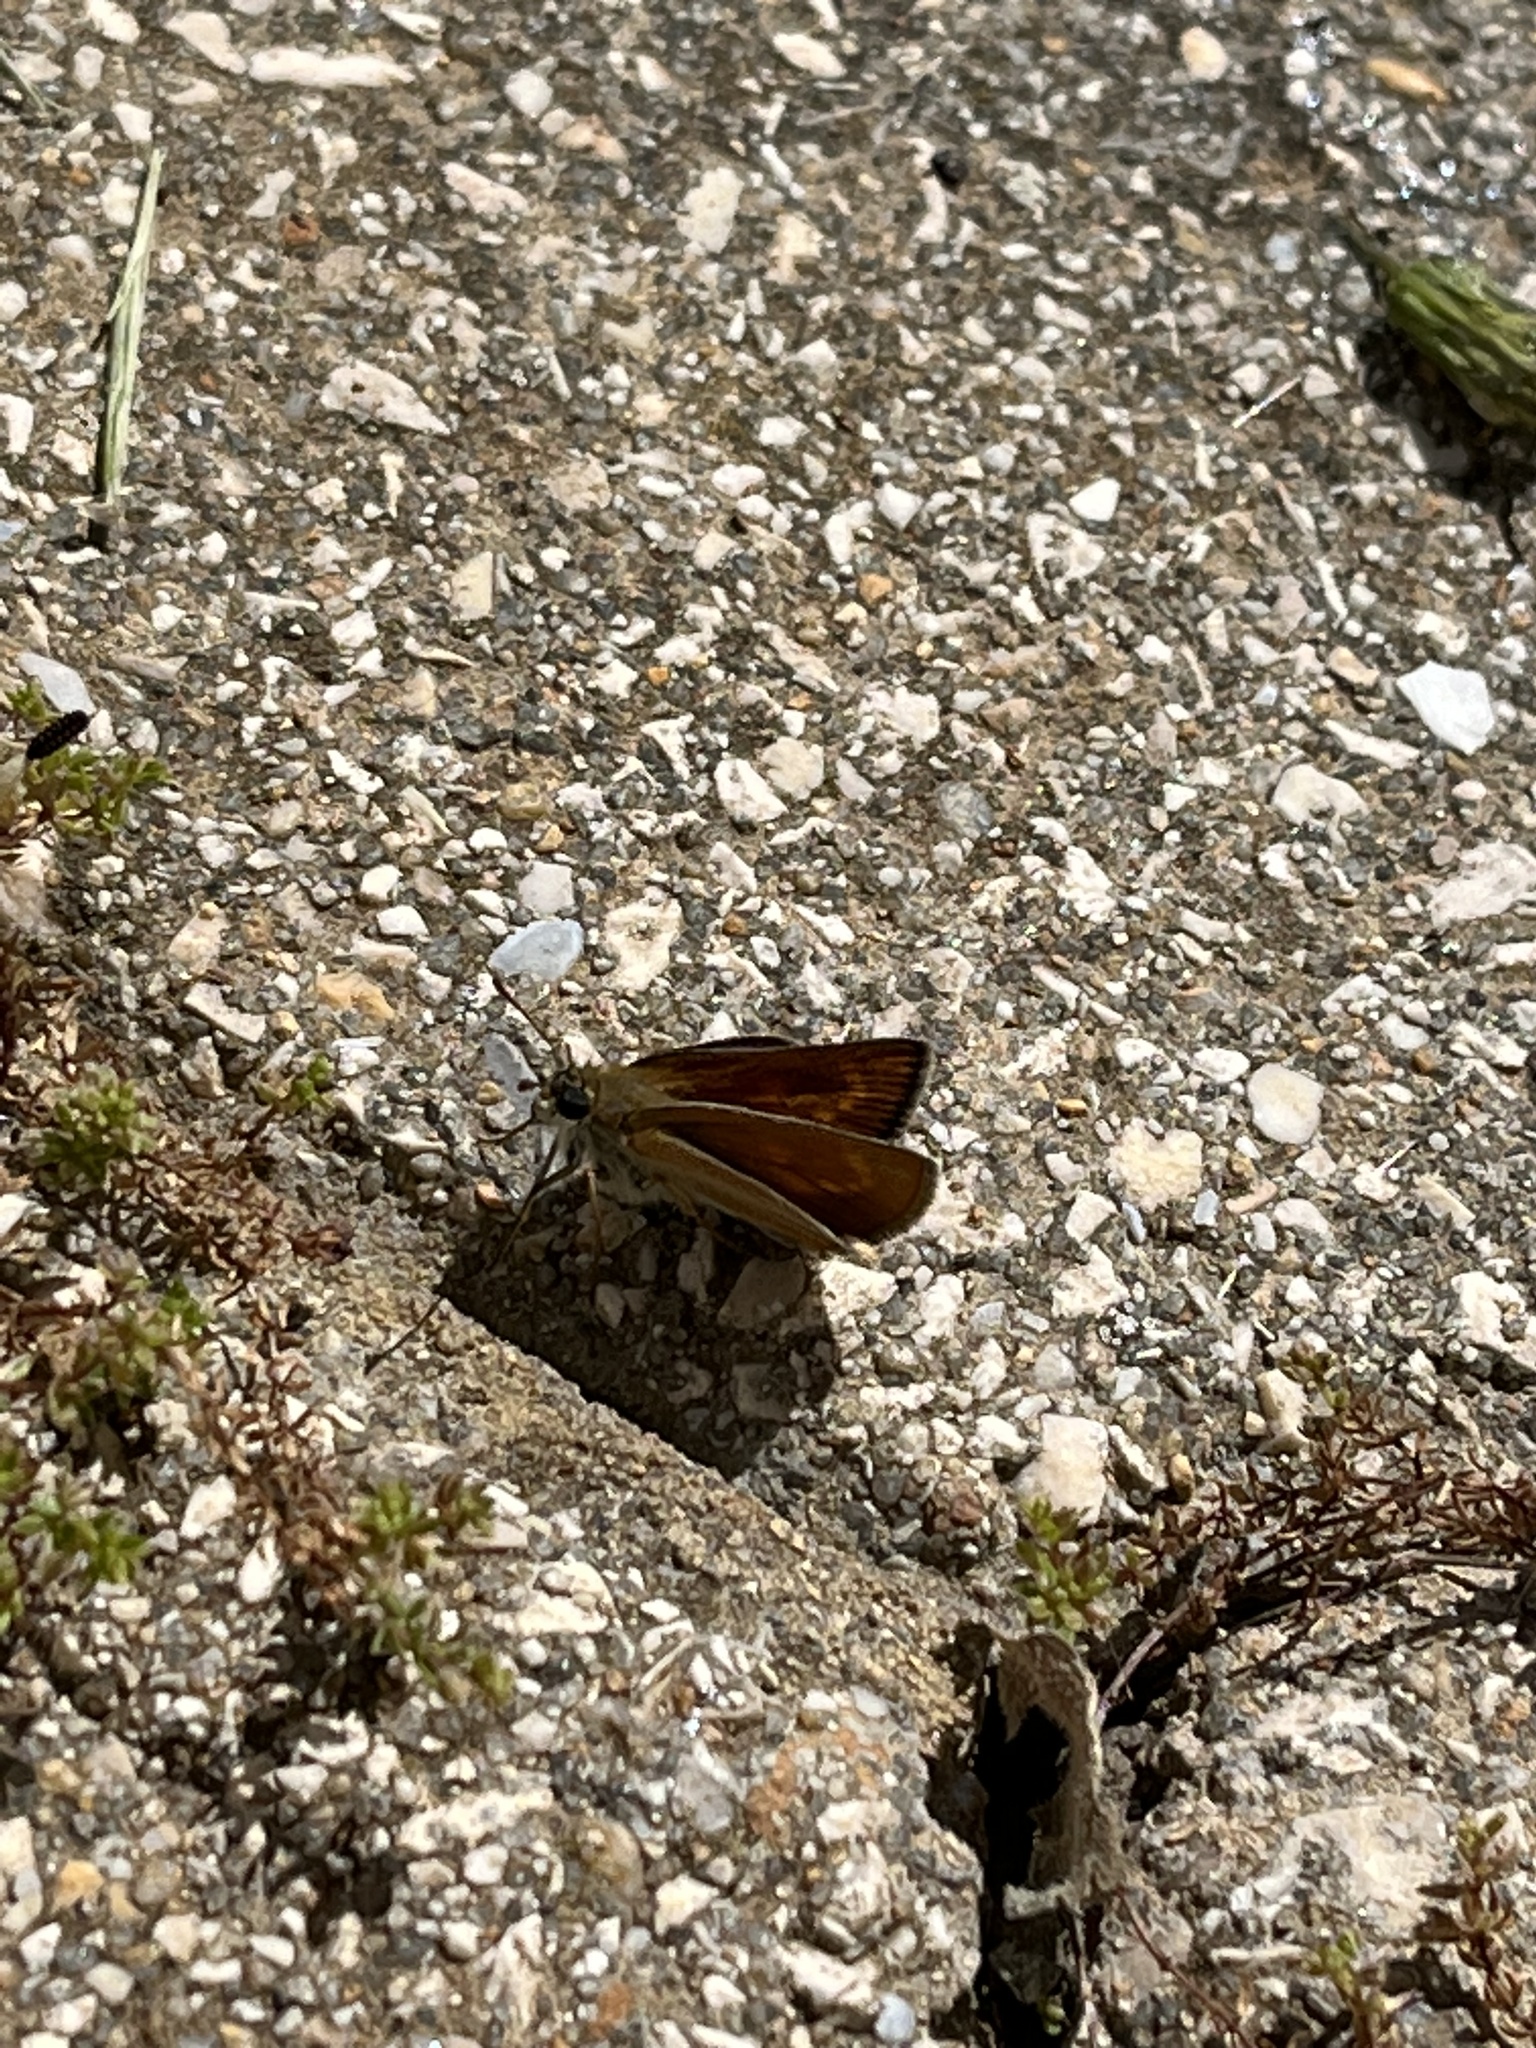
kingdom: Animalia
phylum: Arthropoda
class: Insecta
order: Lepidoptera
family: Hesperiidae
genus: Thymelicus
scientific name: Thymelicus acteon
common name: Lulworth skipper
